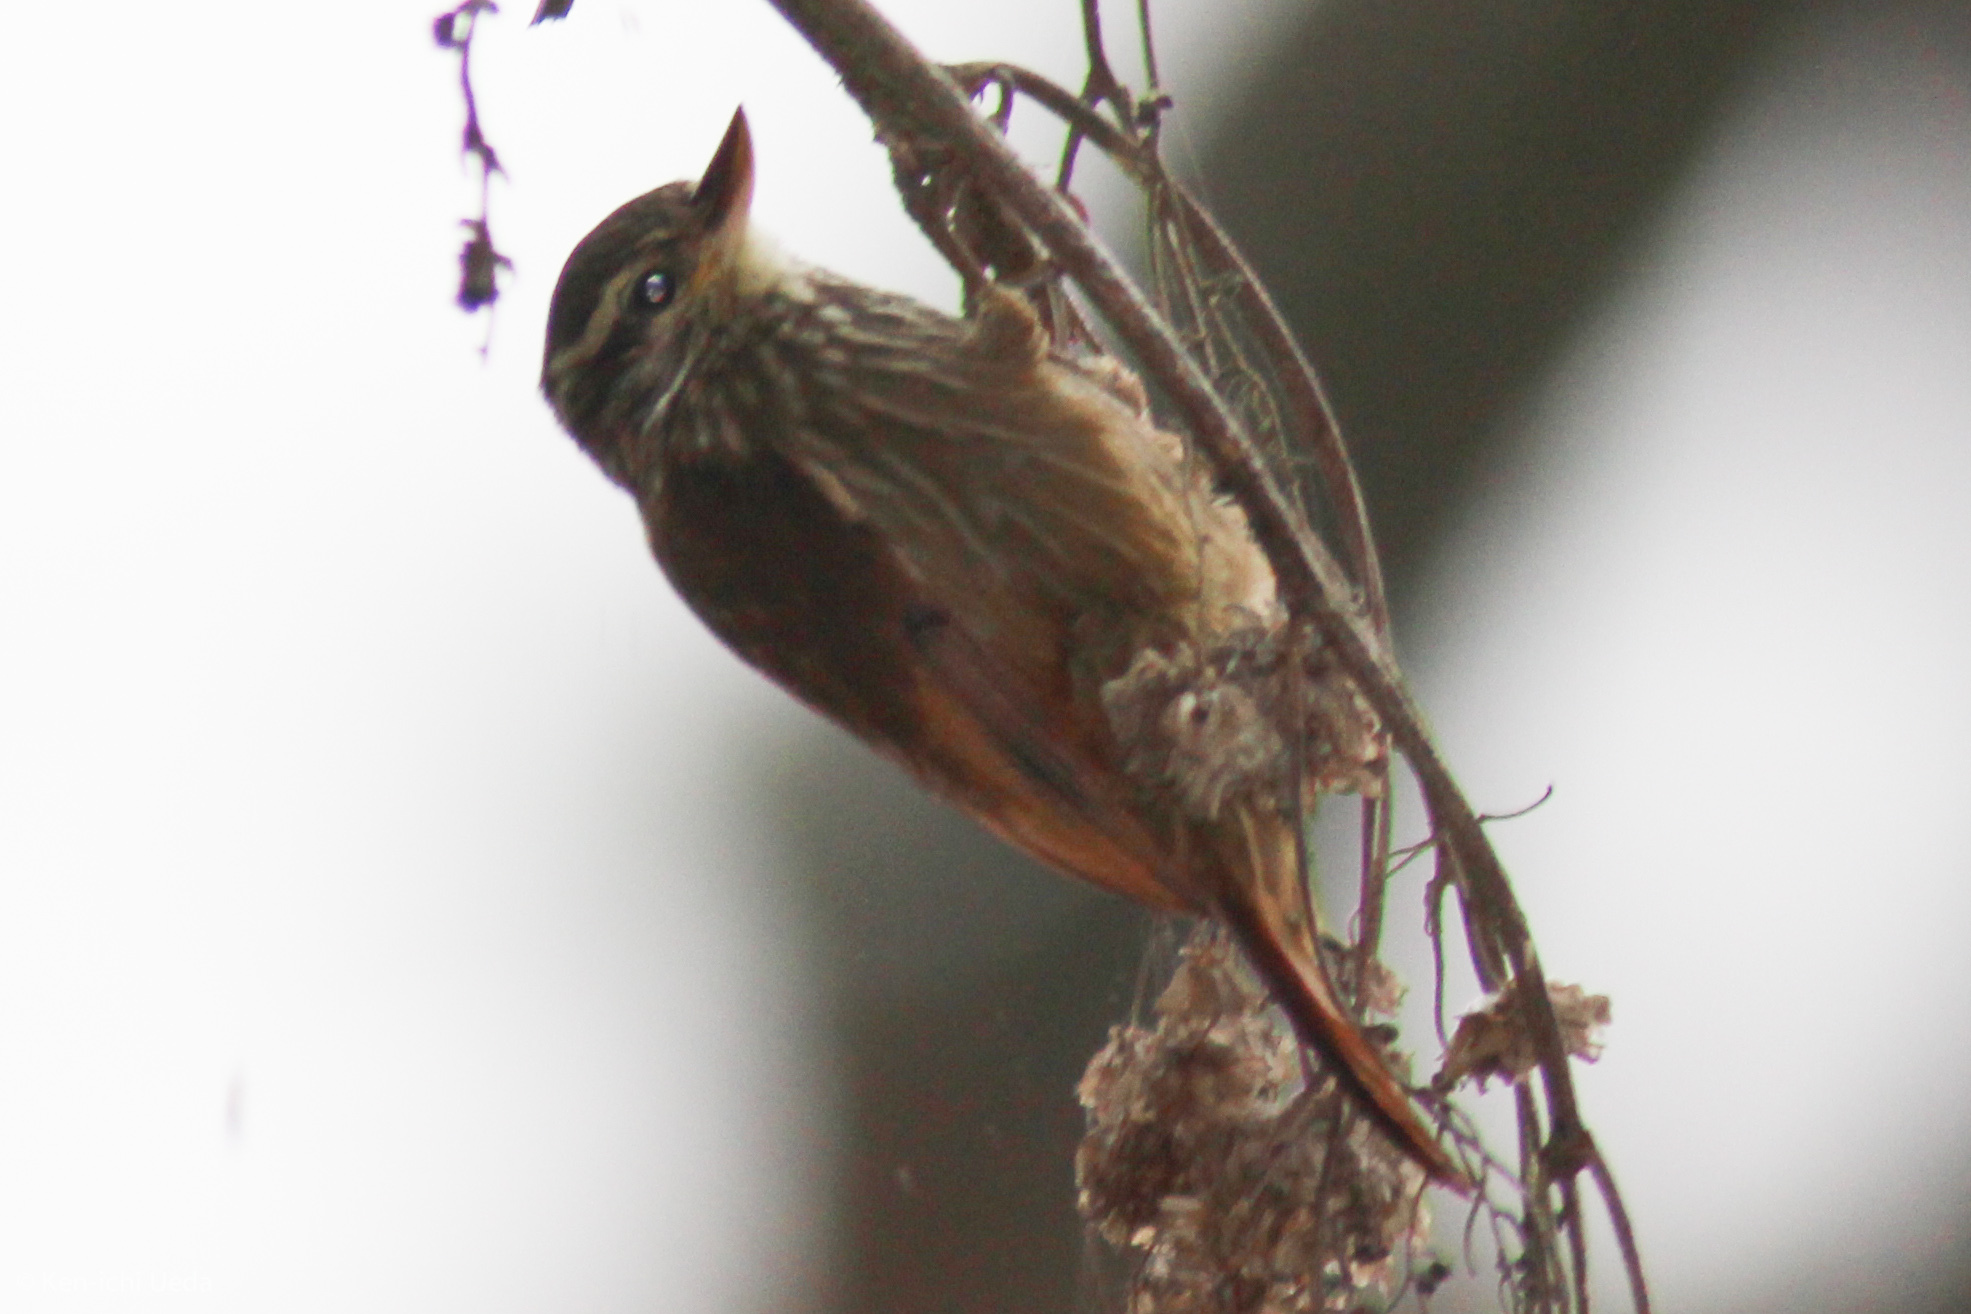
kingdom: Animalia
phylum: Chordata
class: Aves
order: Passeriformes
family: Furnariidae
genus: Xenops
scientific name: Xenops rutilans
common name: Streaked xenops
